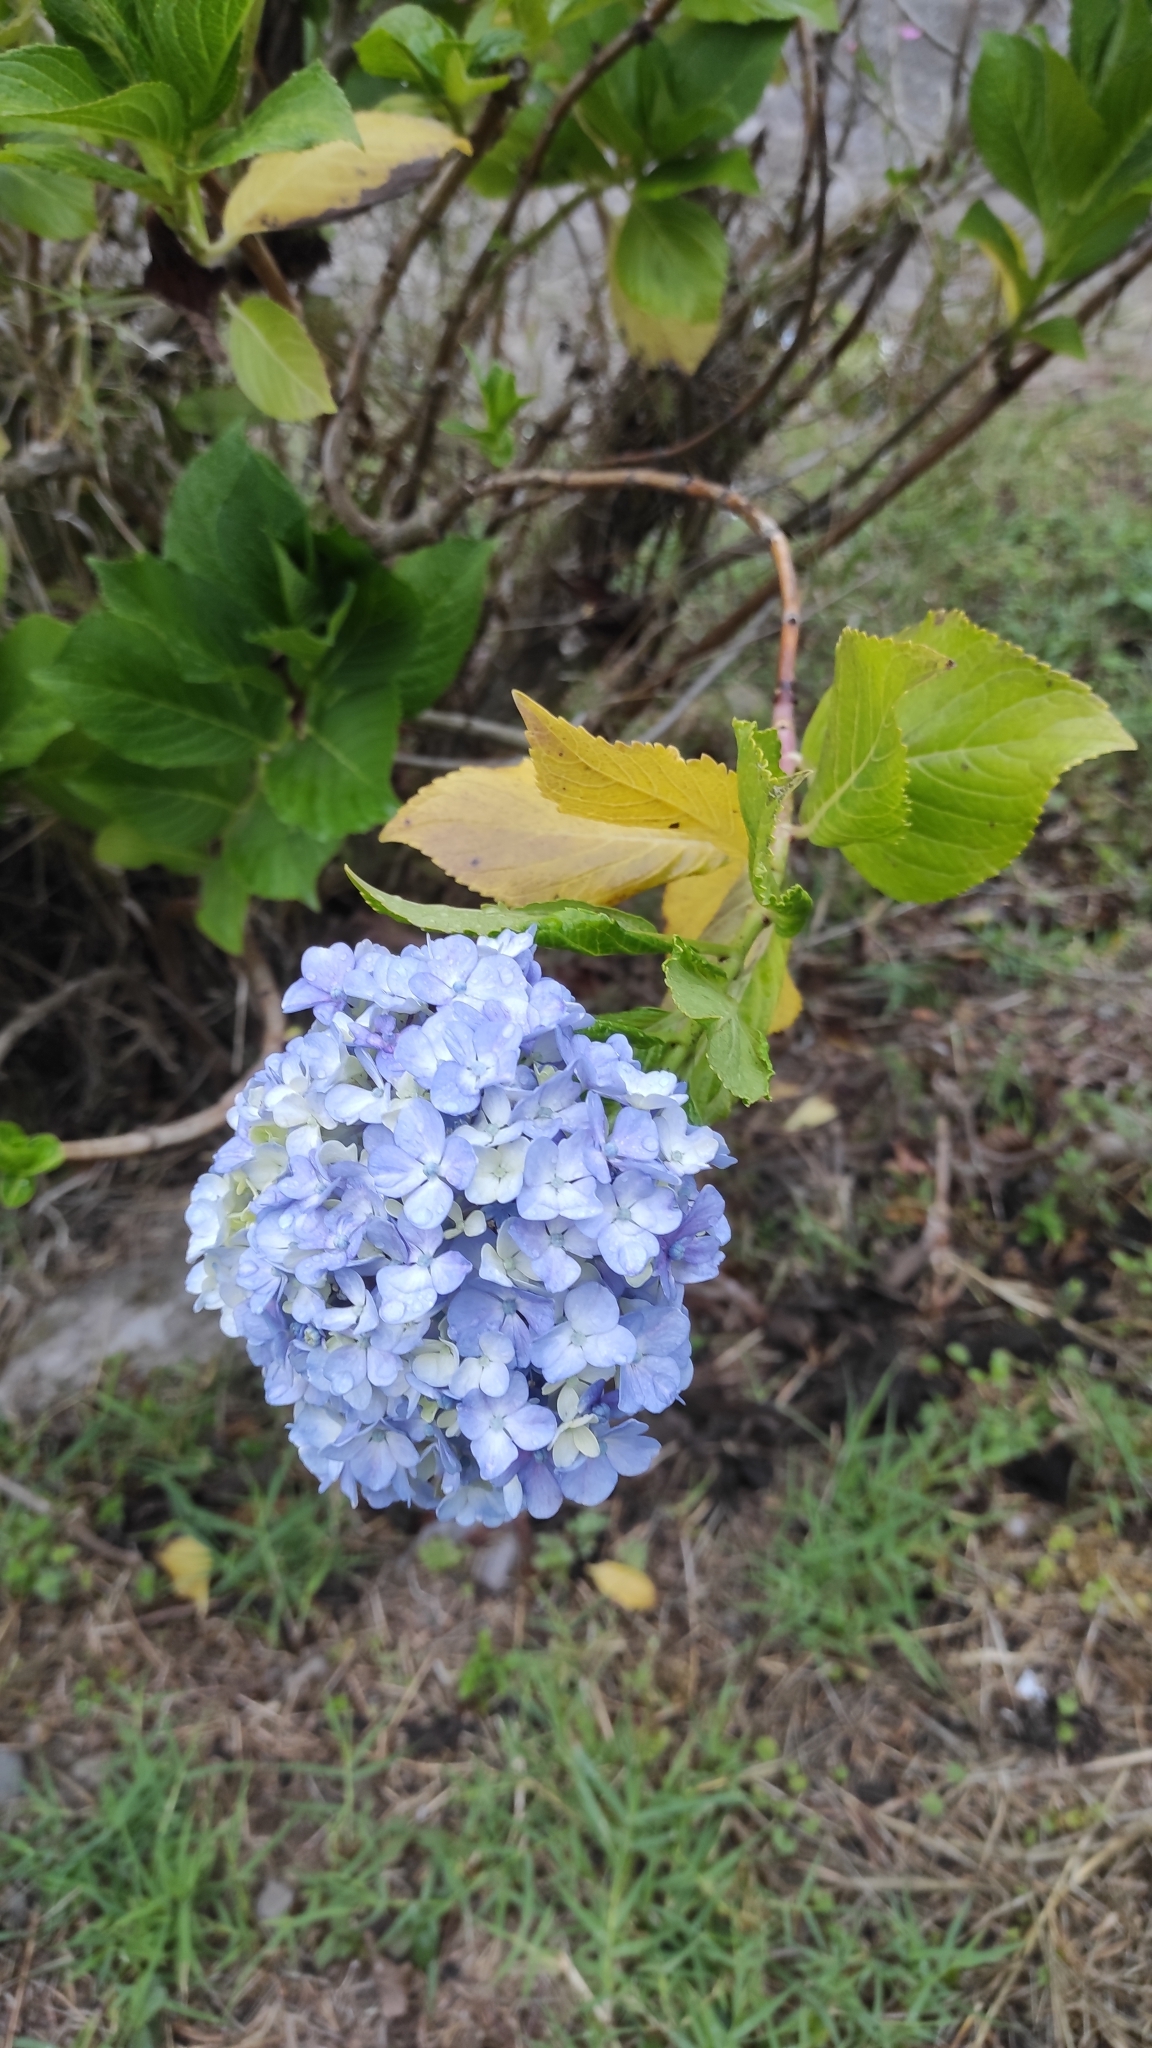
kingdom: Plantae
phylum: Tracheophyta
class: Magnoliopsida
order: Cornales
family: Hydrangeaceae
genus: Hydrangea
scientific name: Hydrangea macrophylla
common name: Hydrangea
